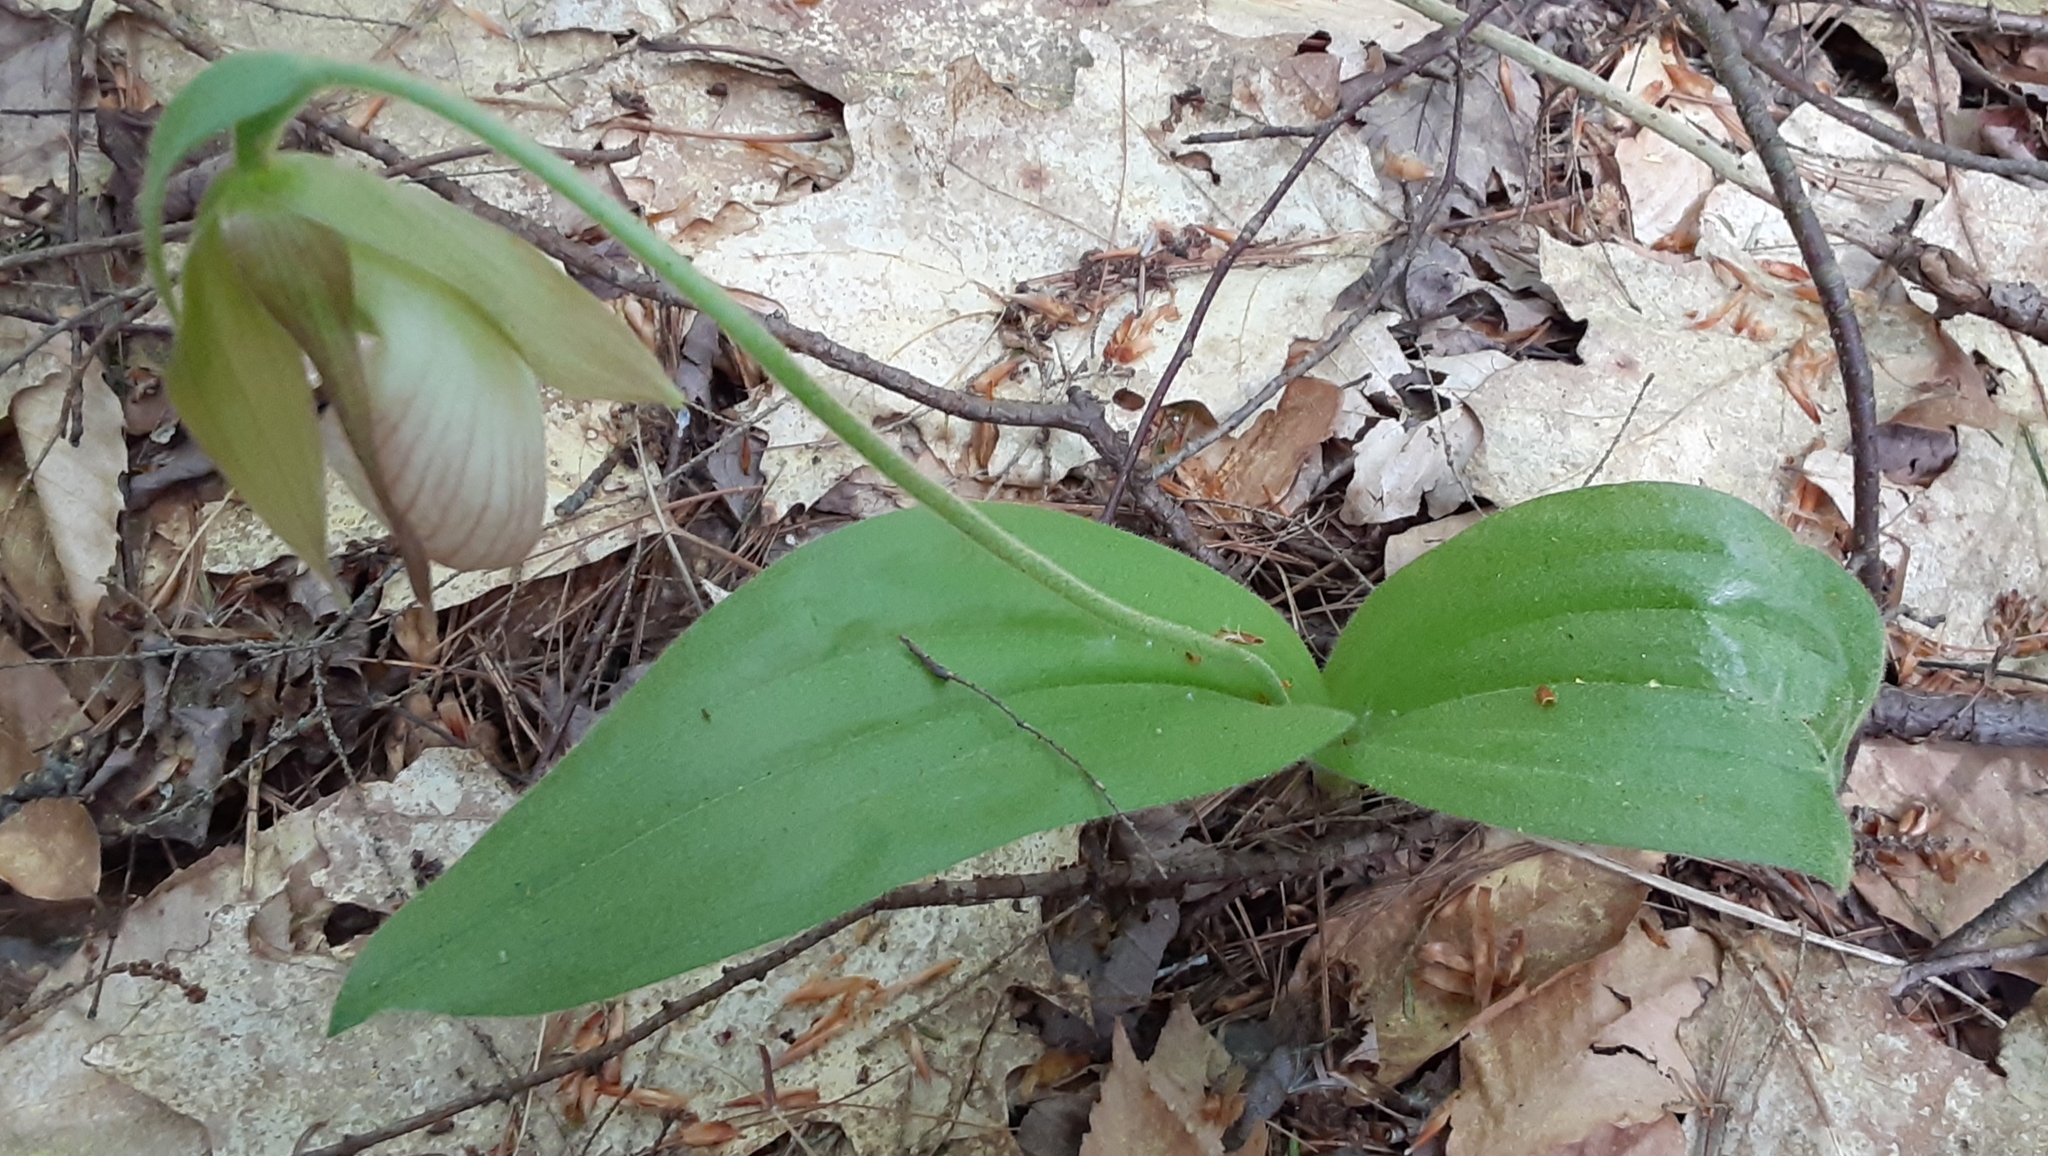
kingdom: Plantae
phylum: Tracheophyta
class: Liliopsida
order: Asparagales
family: Orchidaceae
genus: Cypripedium
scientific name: Cypripedium acaule
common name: Pink lady's-slipper
